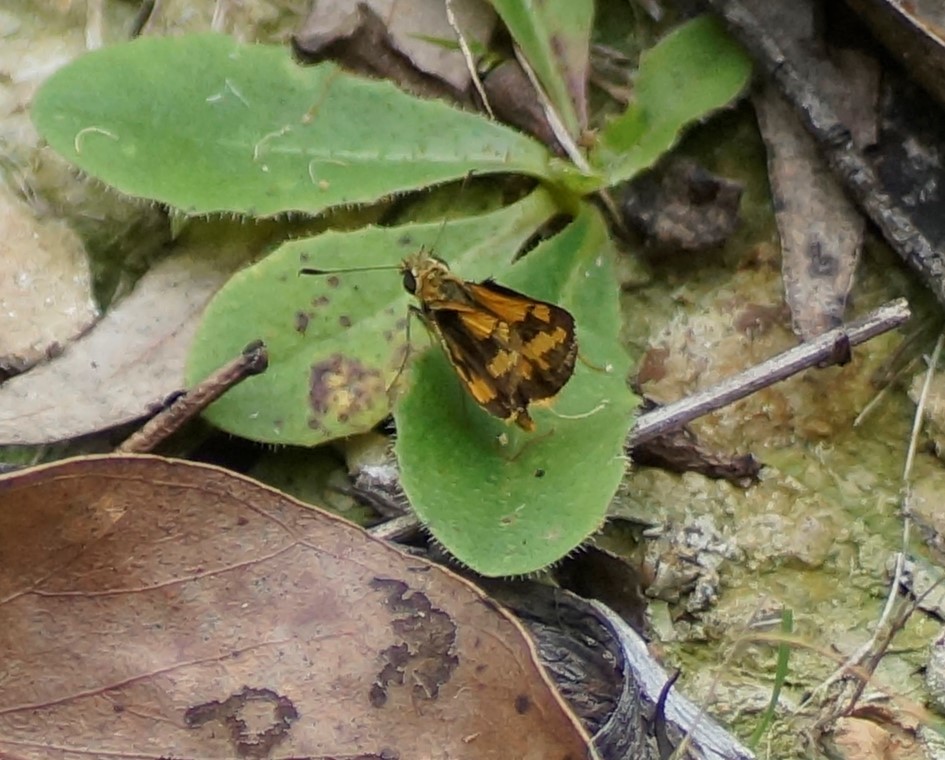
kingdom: Animalia
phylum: Arthropoda
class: Insecta
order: Lepidoptera
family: Hesperiidae
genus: Ocybadistes
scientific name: Ocybadistes walkeri
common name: Yellow-banded dart
